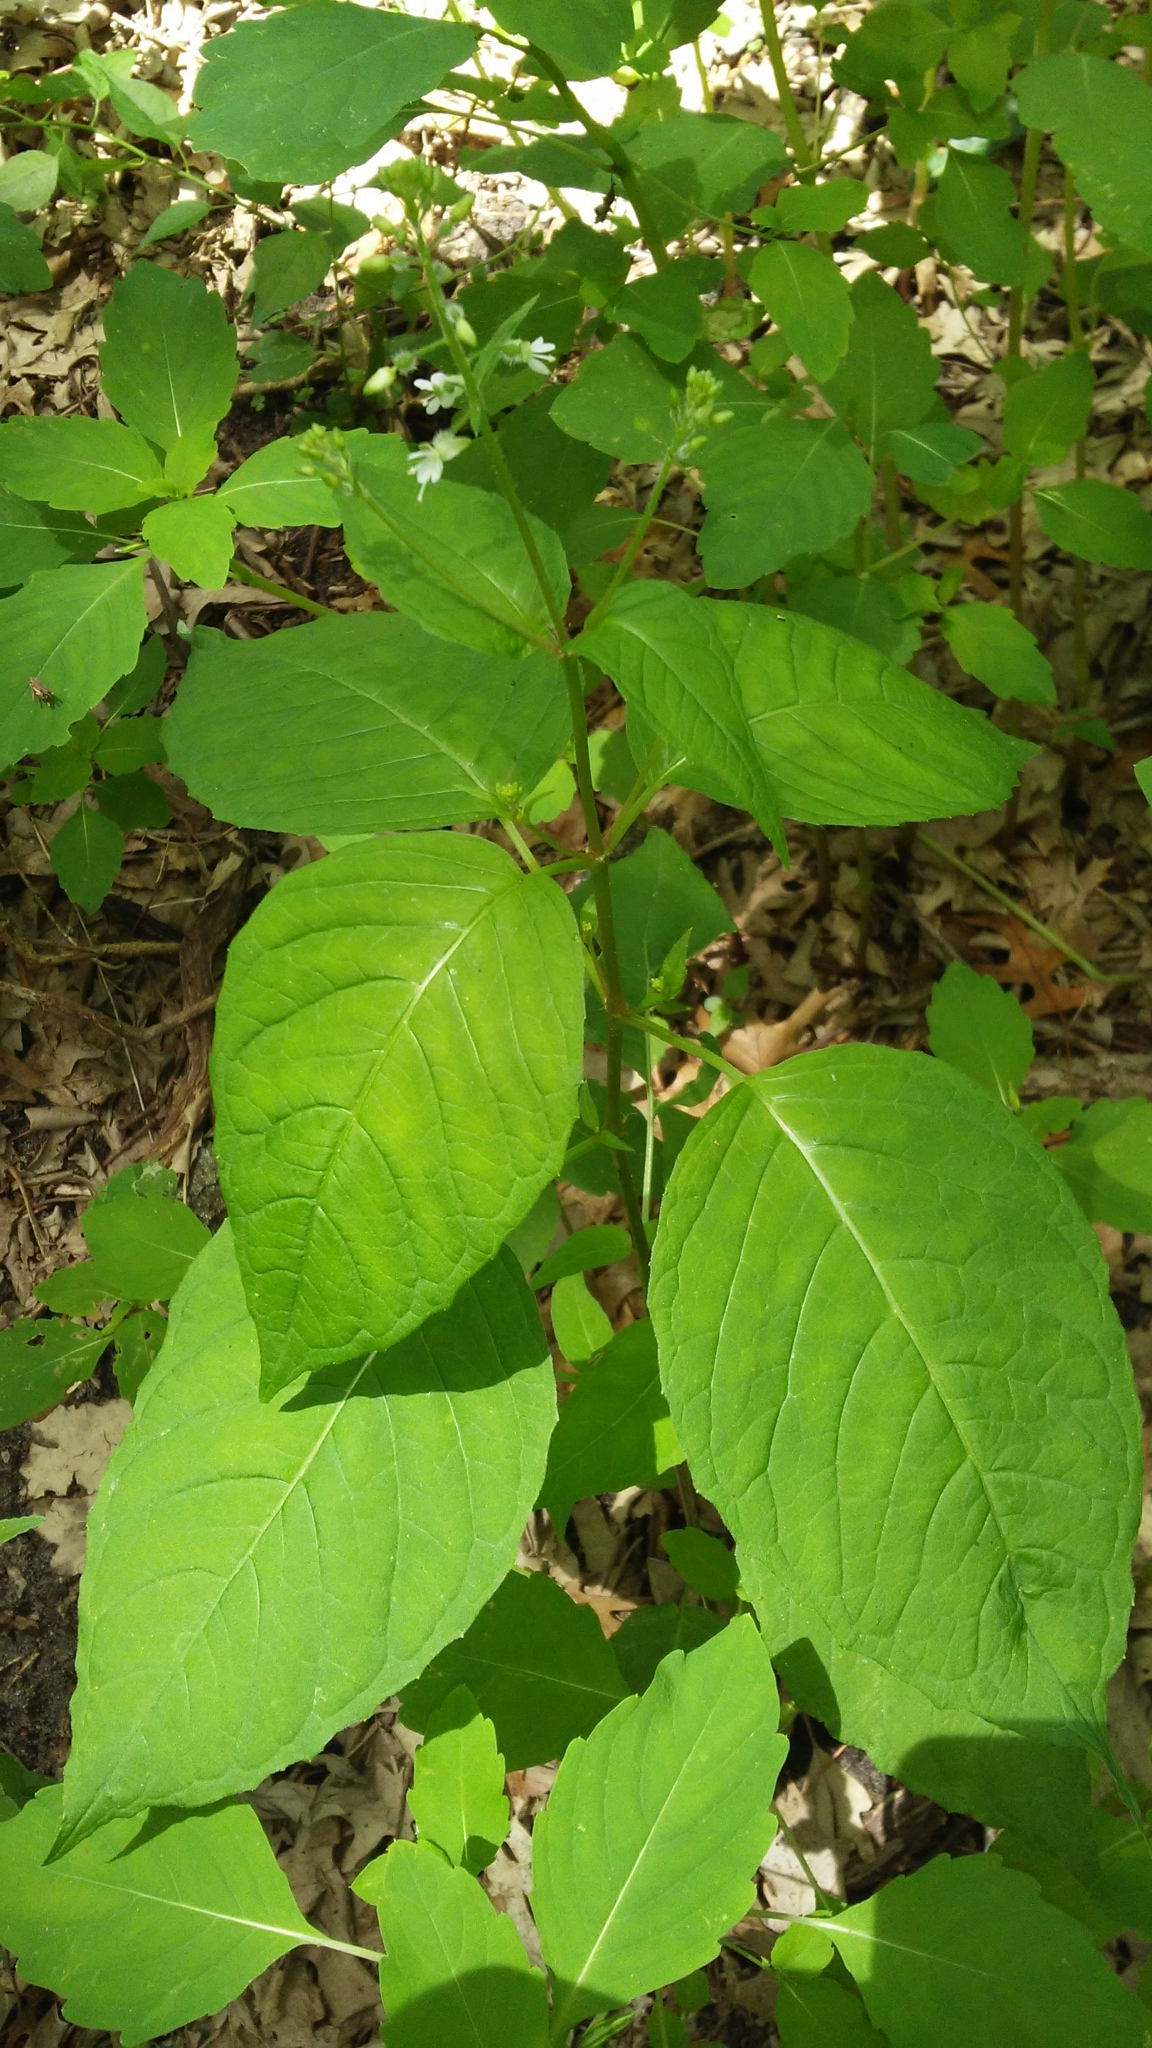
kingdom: Plantae
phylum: Tracheophyta
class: Magnoliopsida
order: Myrtales
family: Onagraceae
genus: Circaea
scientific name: Circaea canadensis
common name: Broad-leaved enchanter's nightshade
